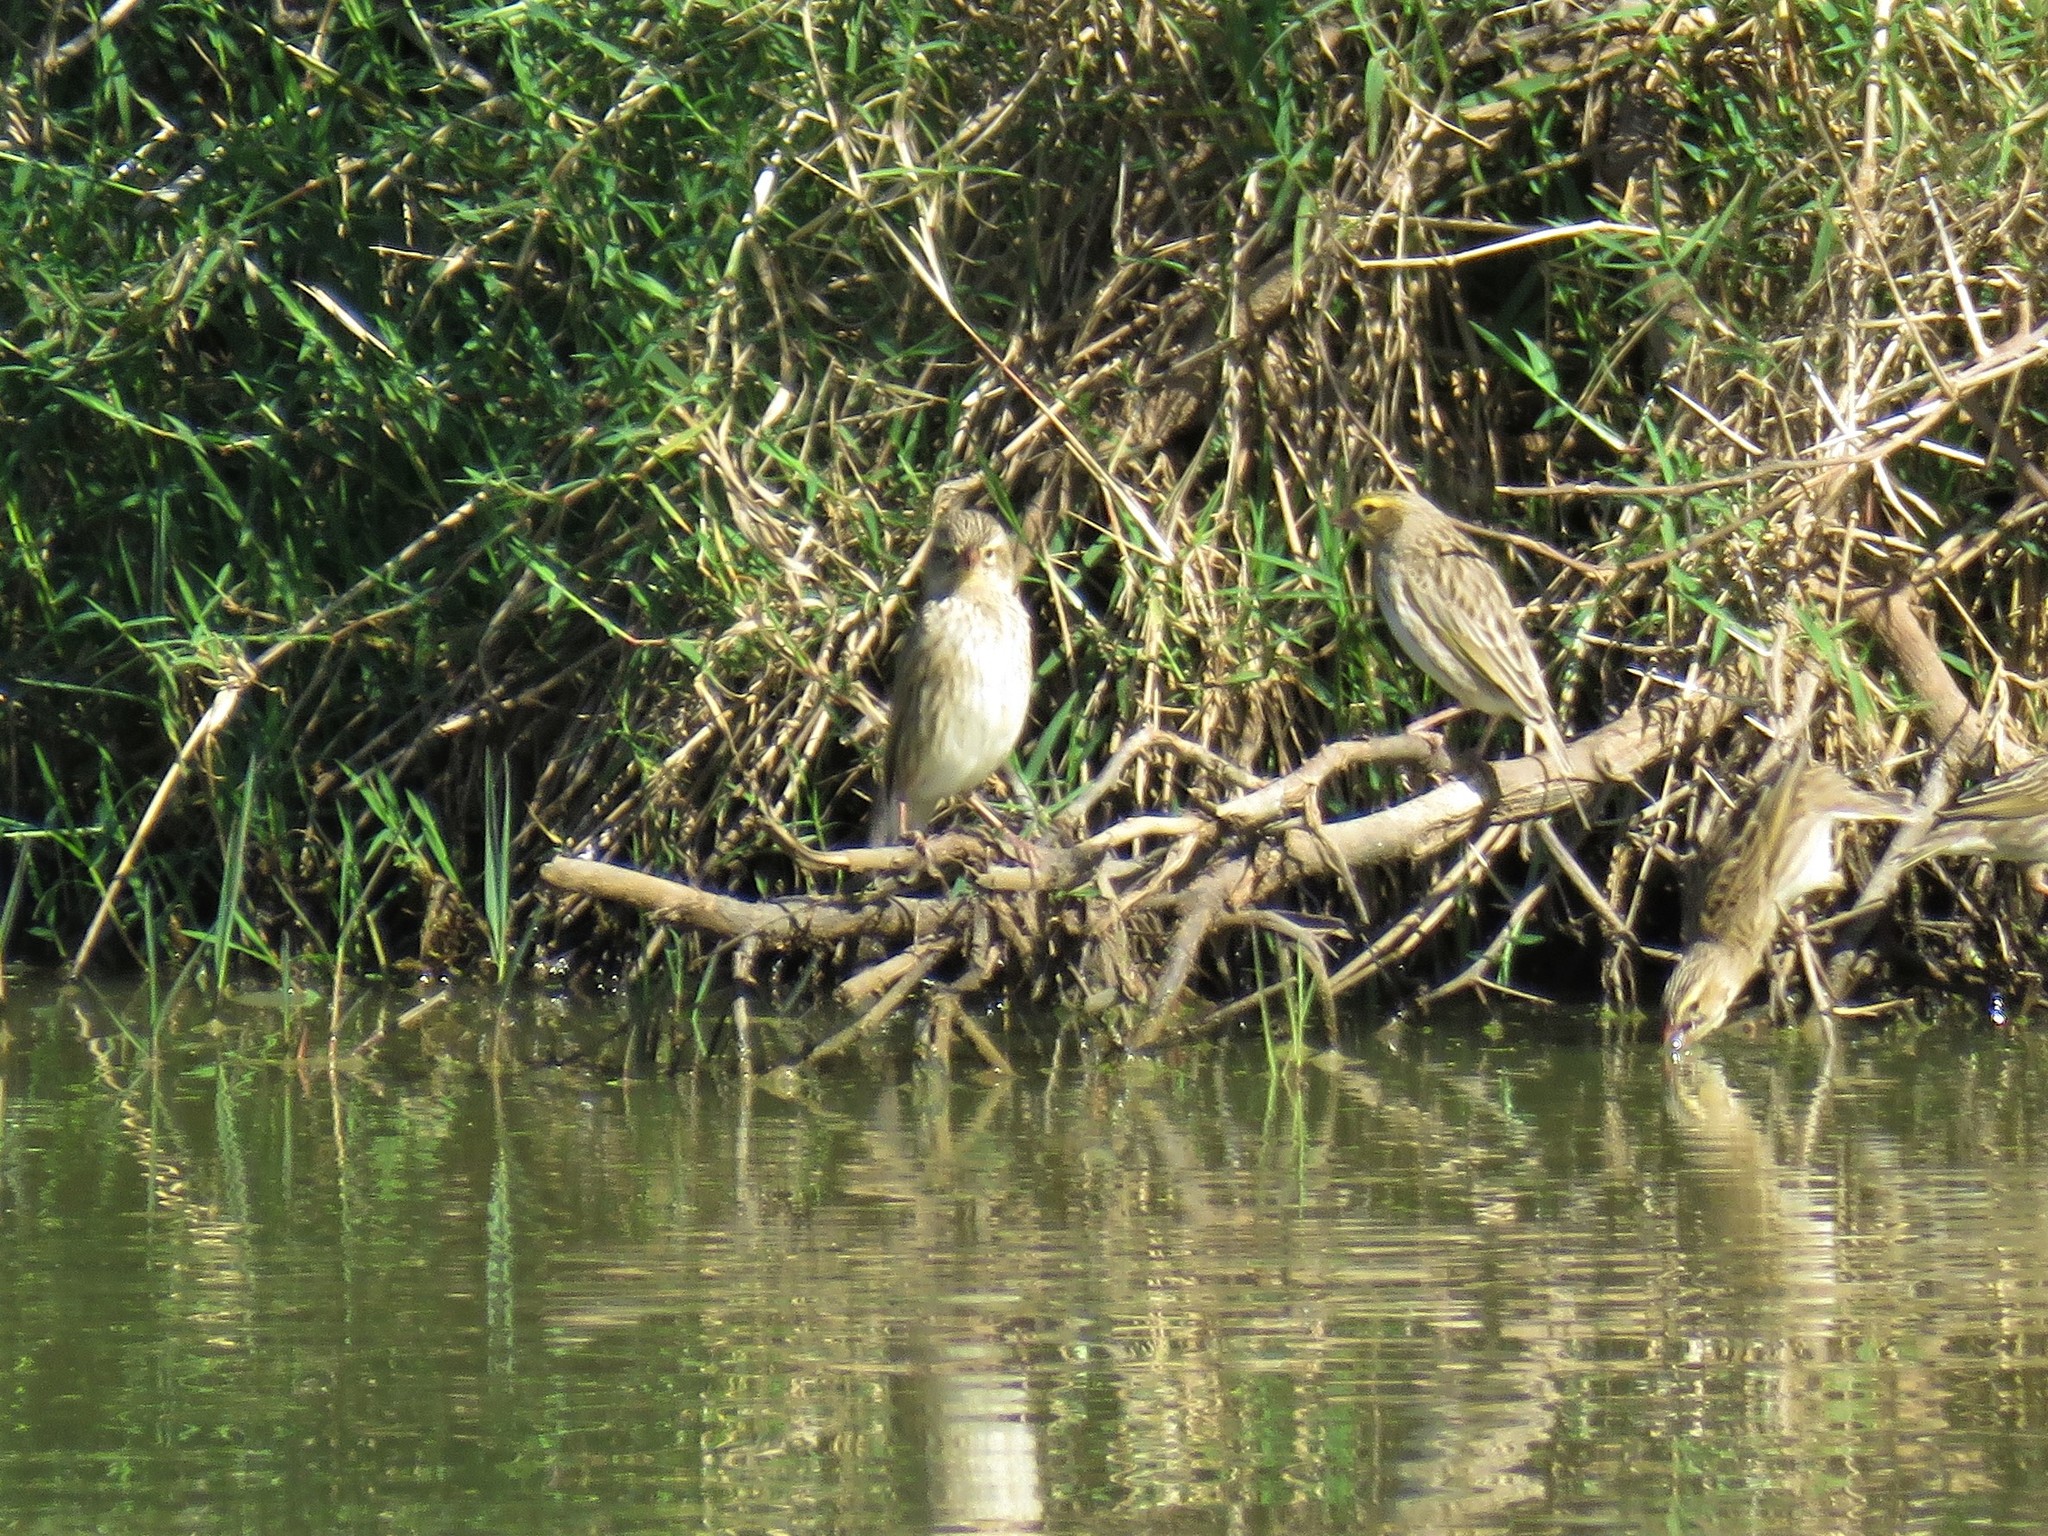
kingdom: Animalia
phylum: Chordata
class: Aves
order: Passeriformes
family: Ploceidae
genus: Euplectes
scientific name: Euplectes orix
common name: Southern red bishop
